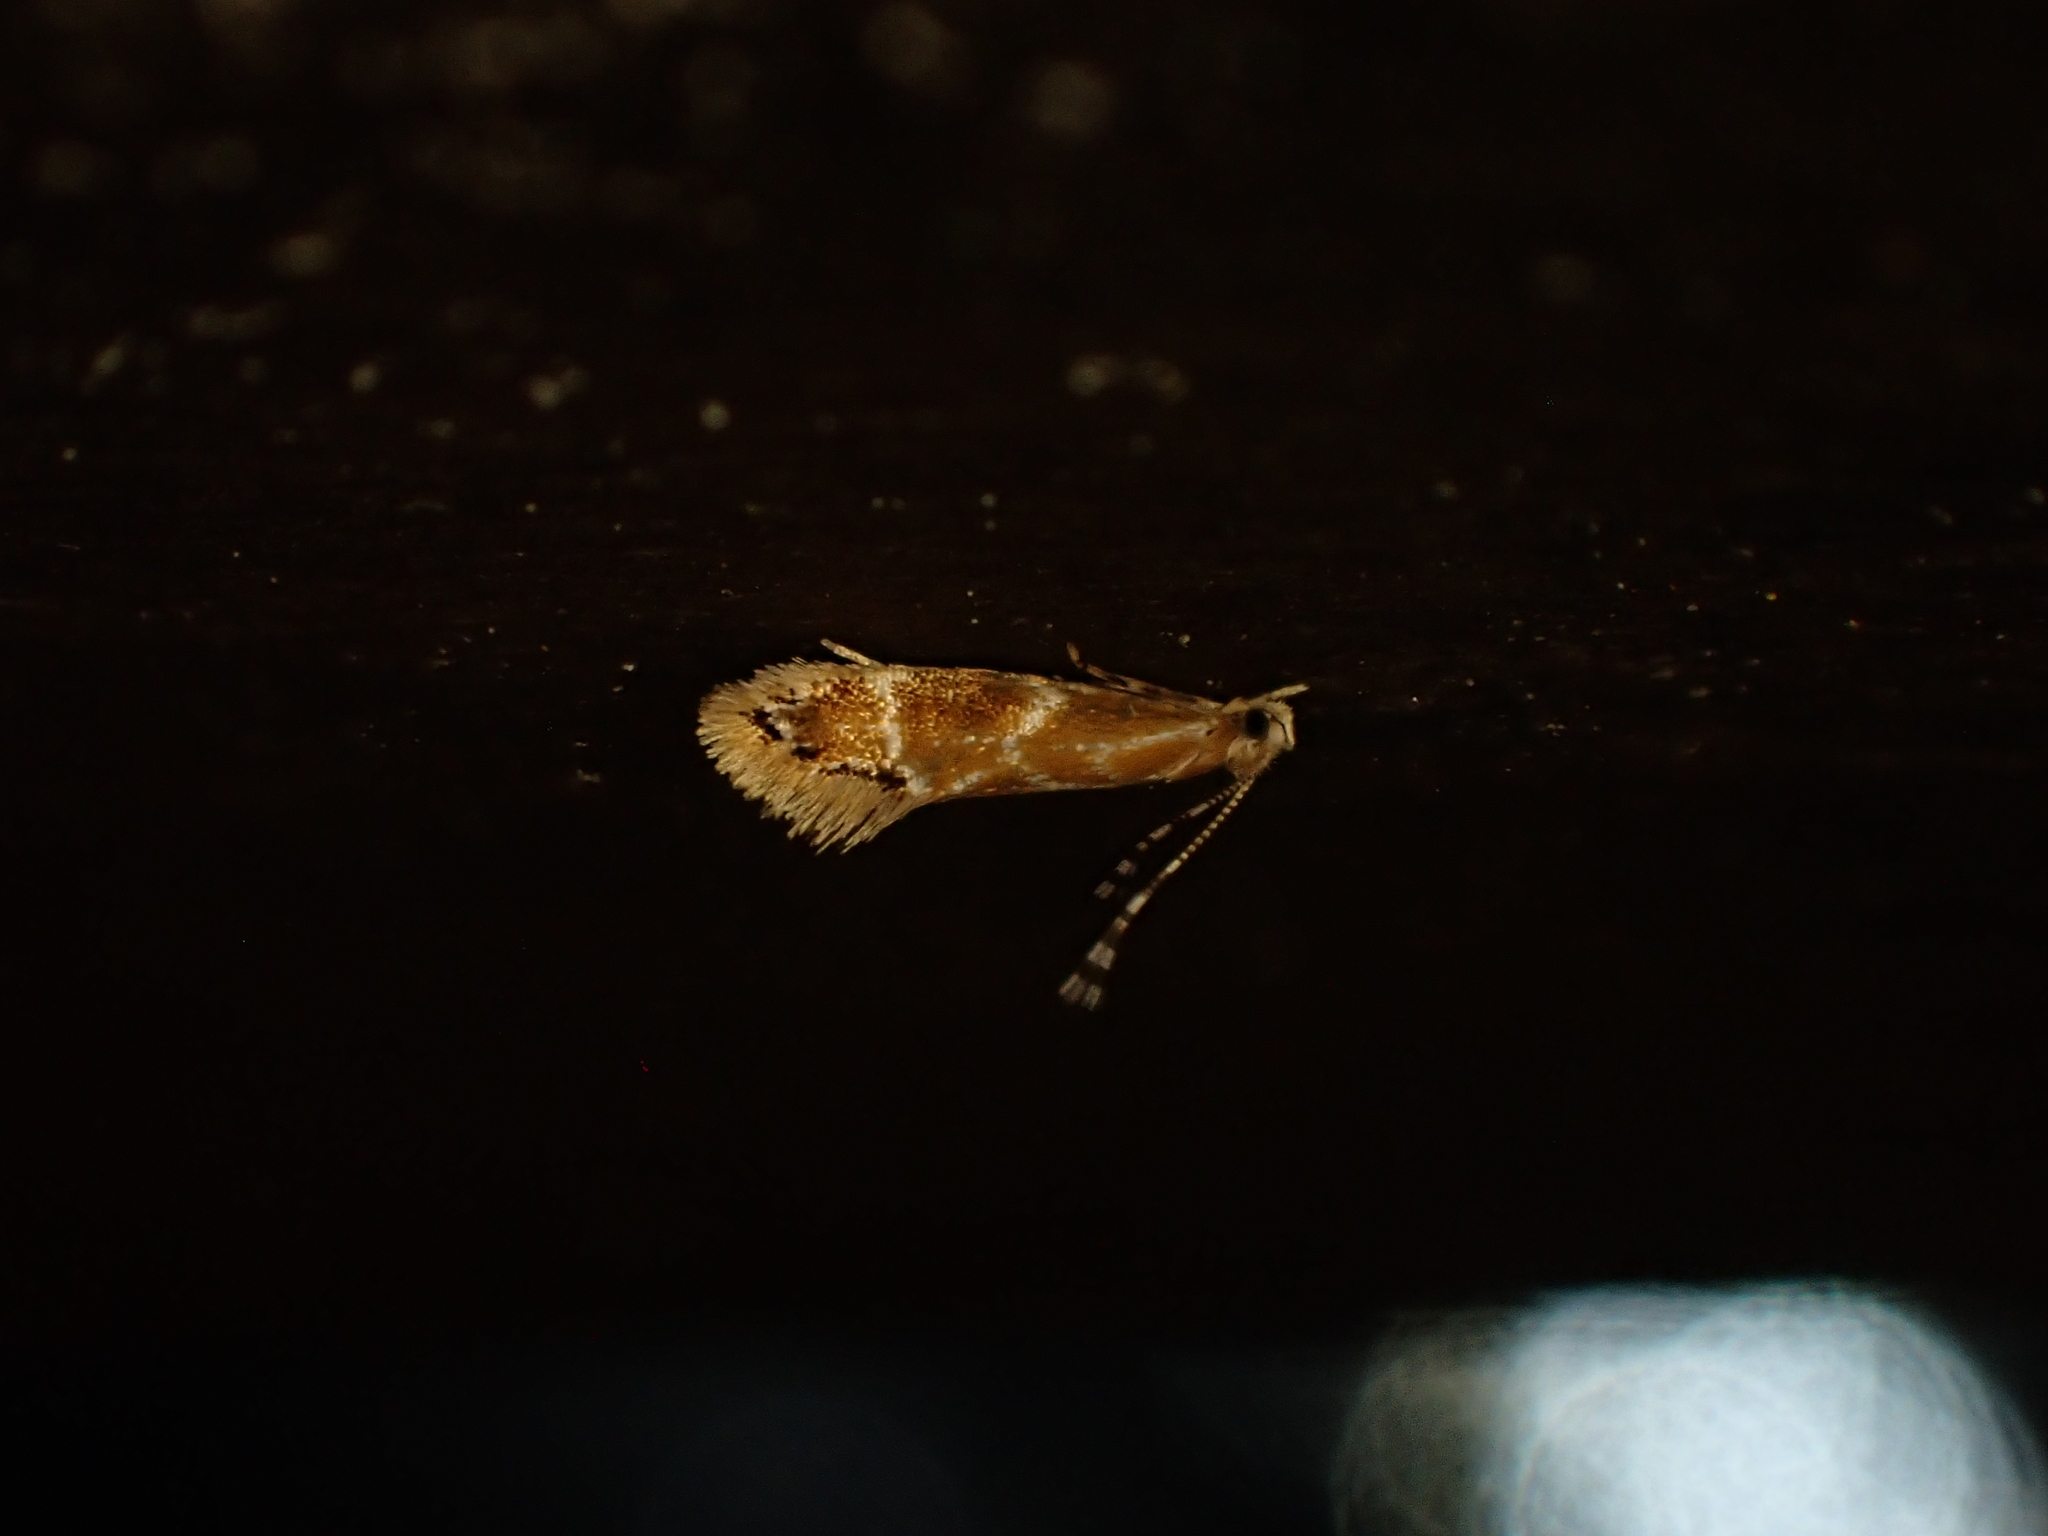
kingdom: Animalia
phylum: Arthropoda
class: Insecta
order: Lepidoptera
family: Dryadaulidae
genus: Dryadaula
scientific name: Dryadaula castanea
